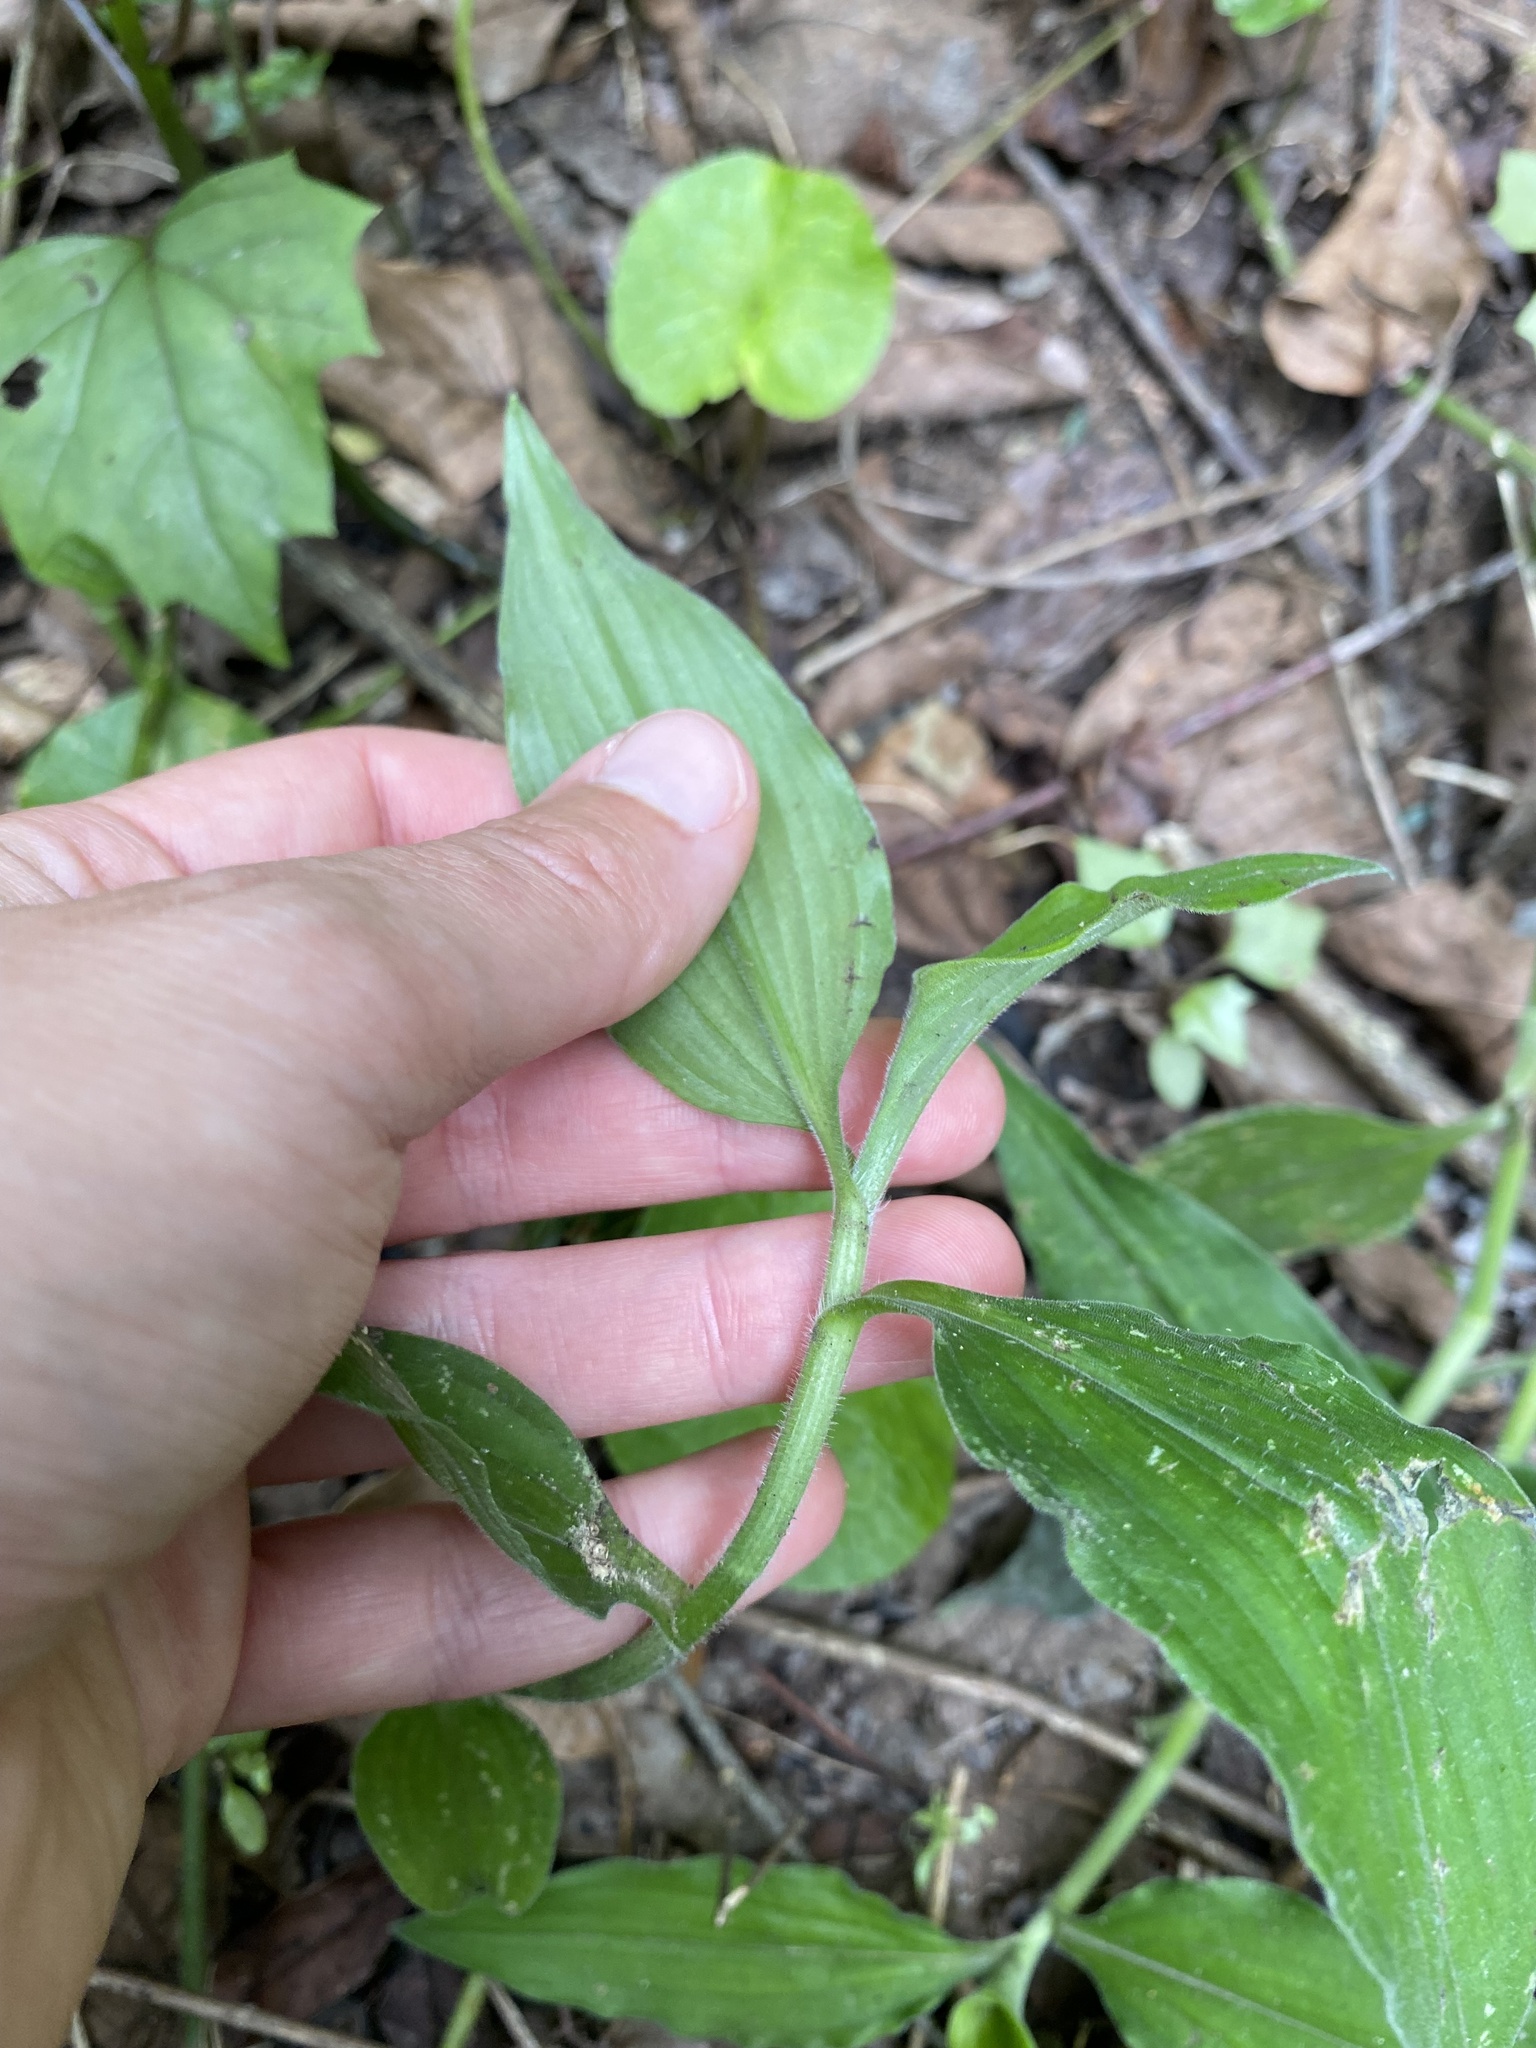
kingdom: Plantae
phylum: Tracheophyta
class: Liliopsida
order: Commelinales
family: Commelinaceae
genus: Aneilema
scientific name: Aneilema aequinoctiale
